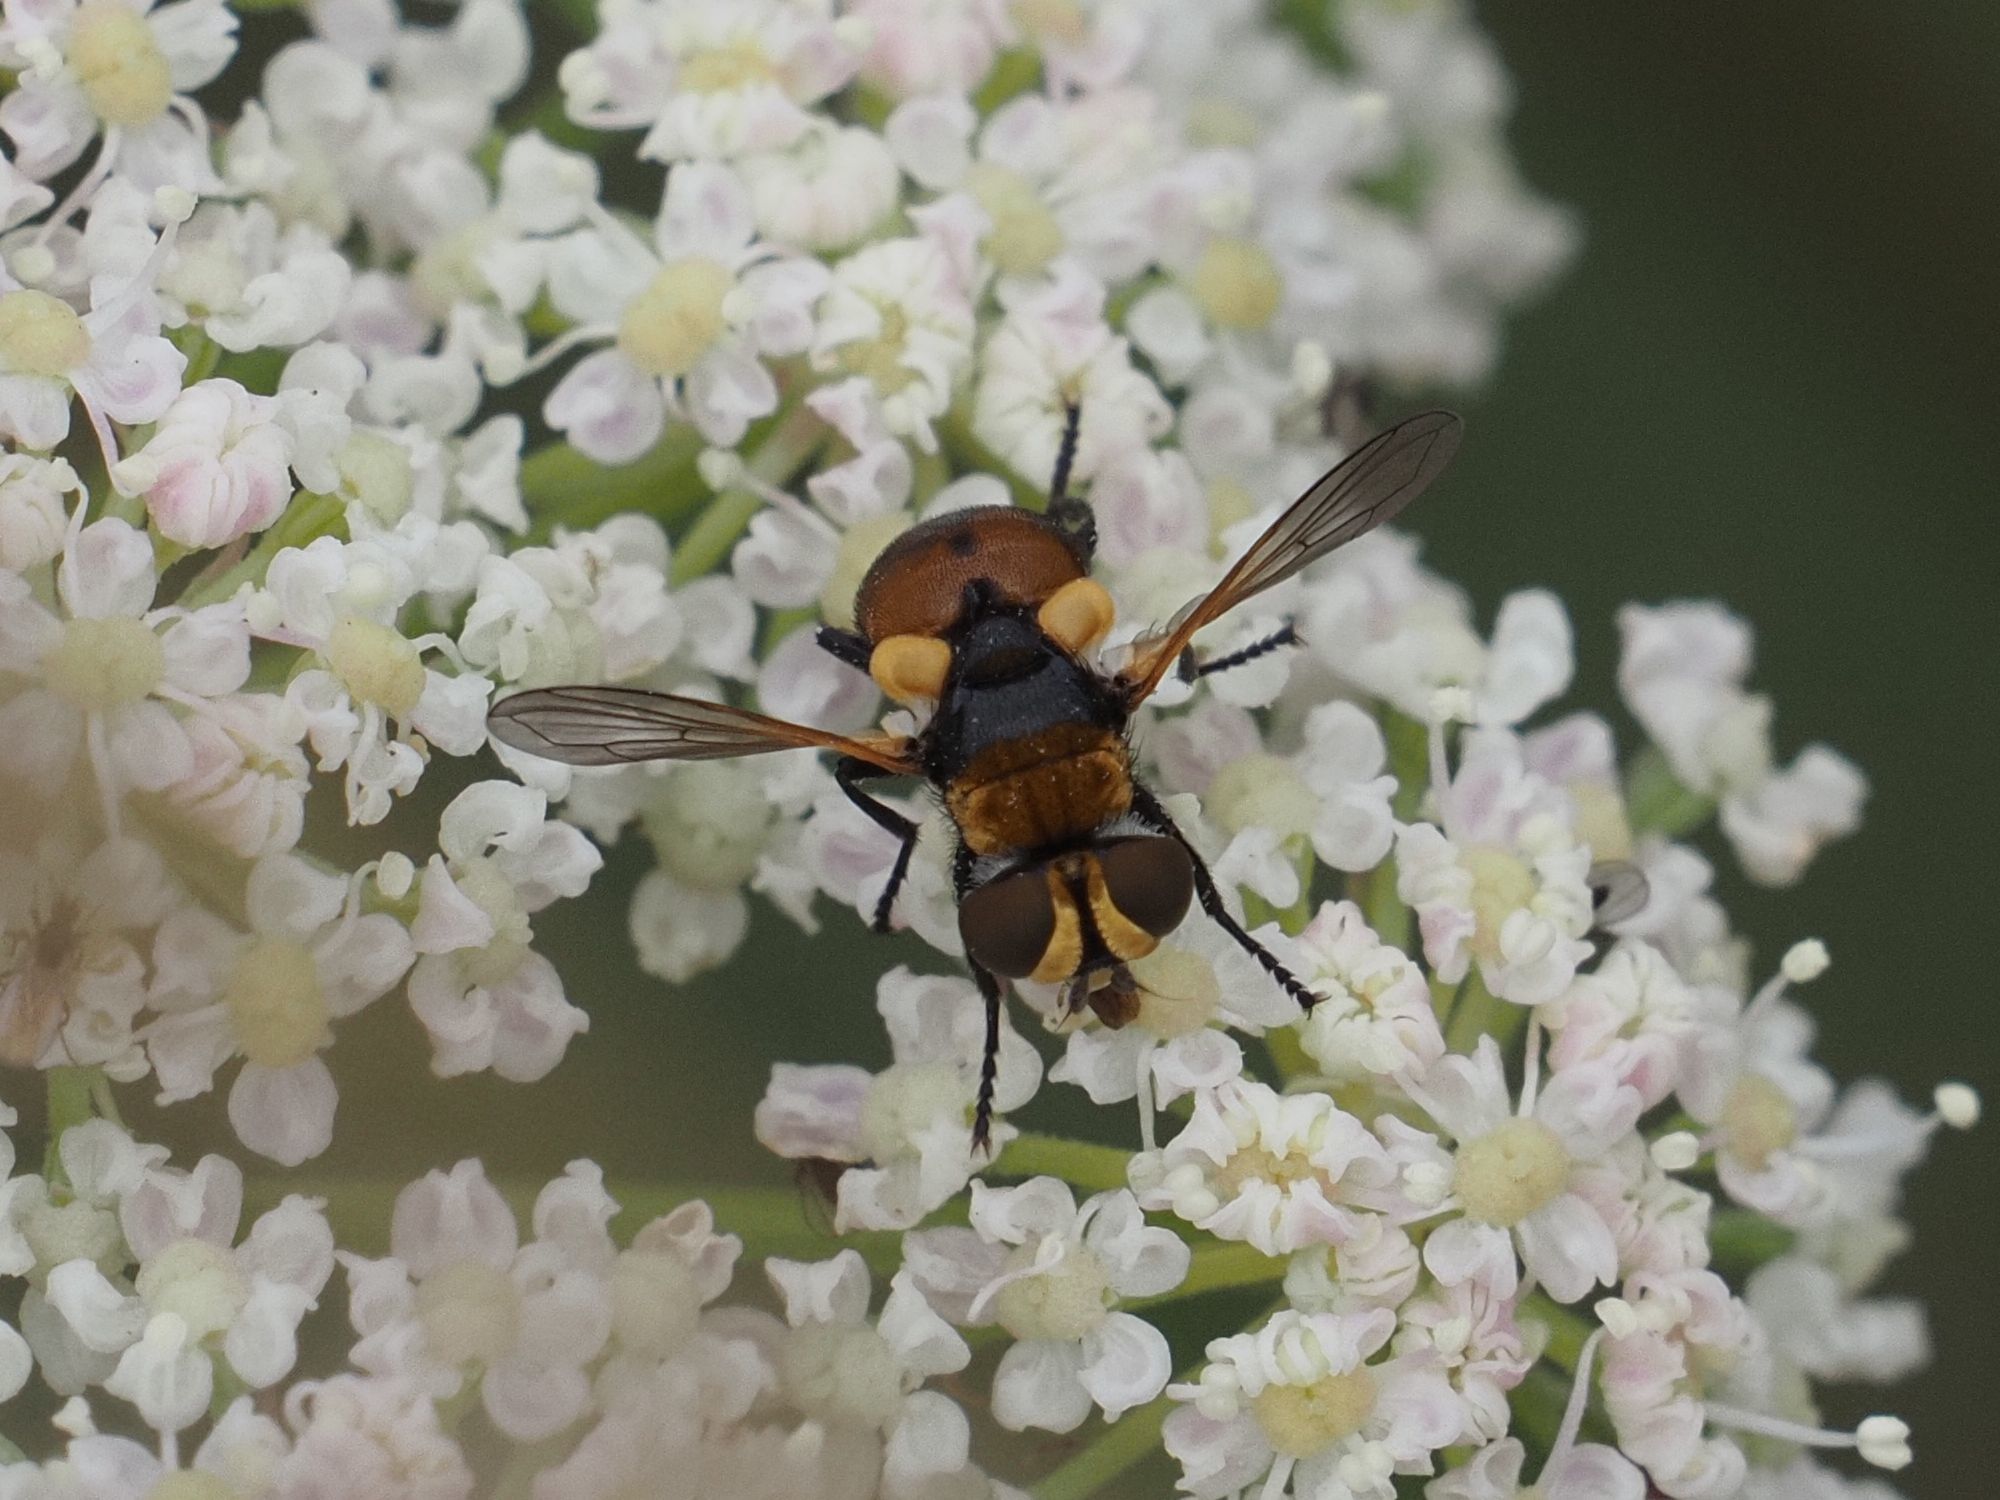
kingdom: Animalia
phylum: Arthropoda
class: Insecta
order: Diptera
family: Tachinidae
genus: Cistogaster
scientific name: Cistogaster globosa
